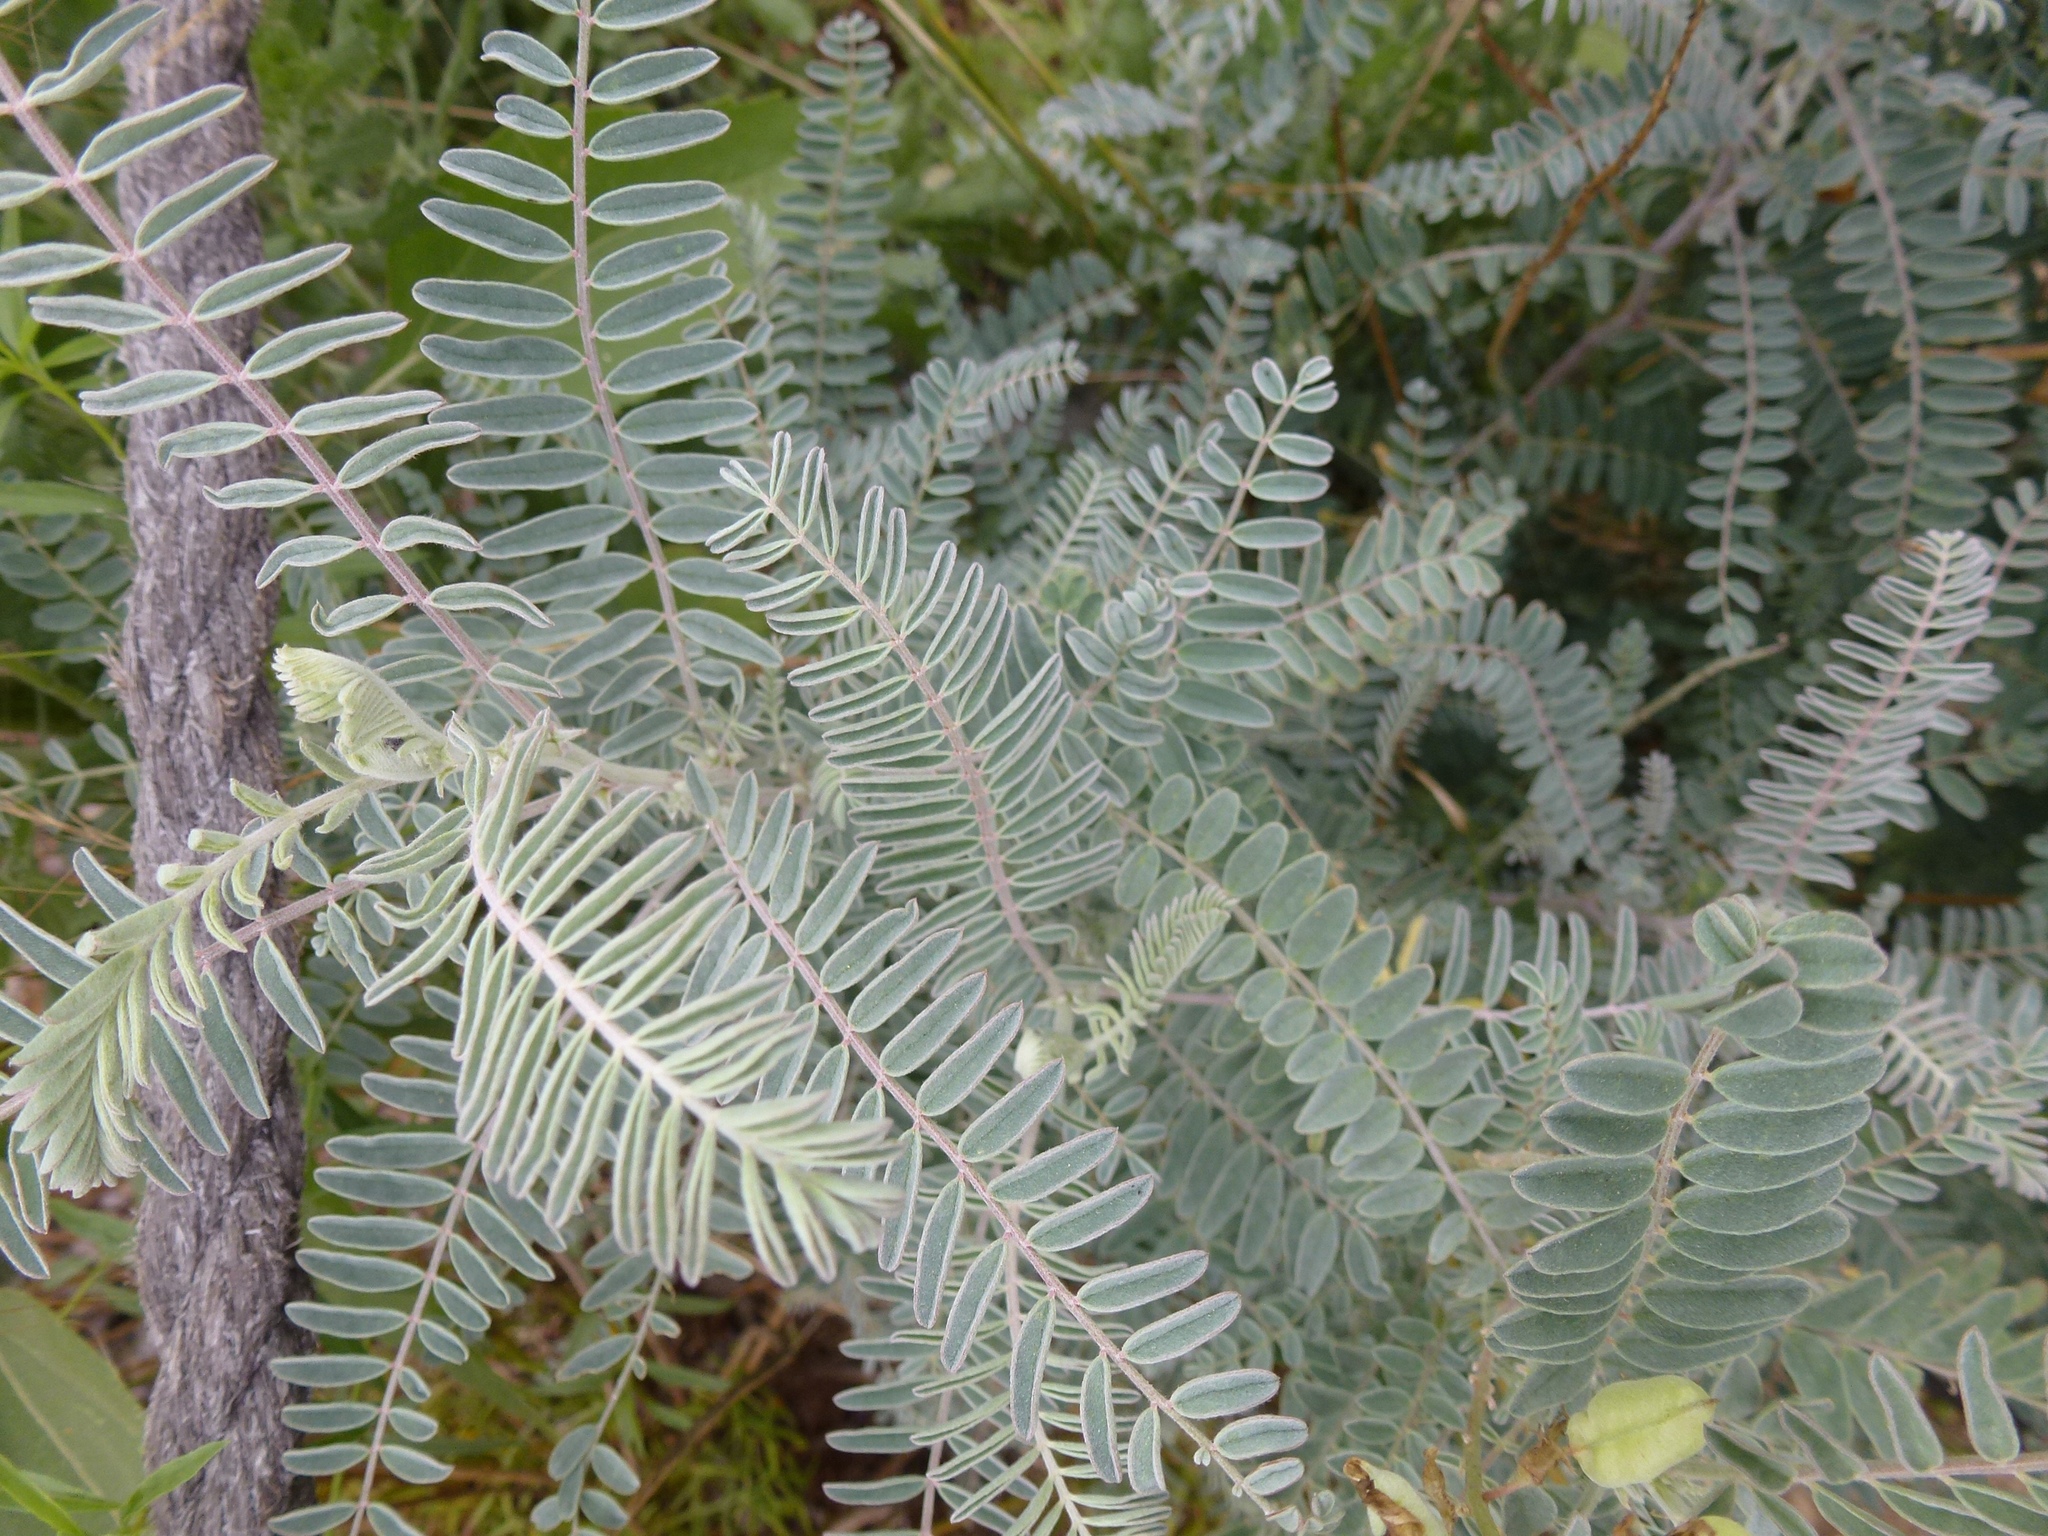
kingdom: Plantae
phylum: Tracheophyta
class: Magnoliopsida
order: Fabales
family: Fabaceae
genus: Astragalus
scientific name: Astragalus trichopodus
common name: Santa barbara milk-vetch
